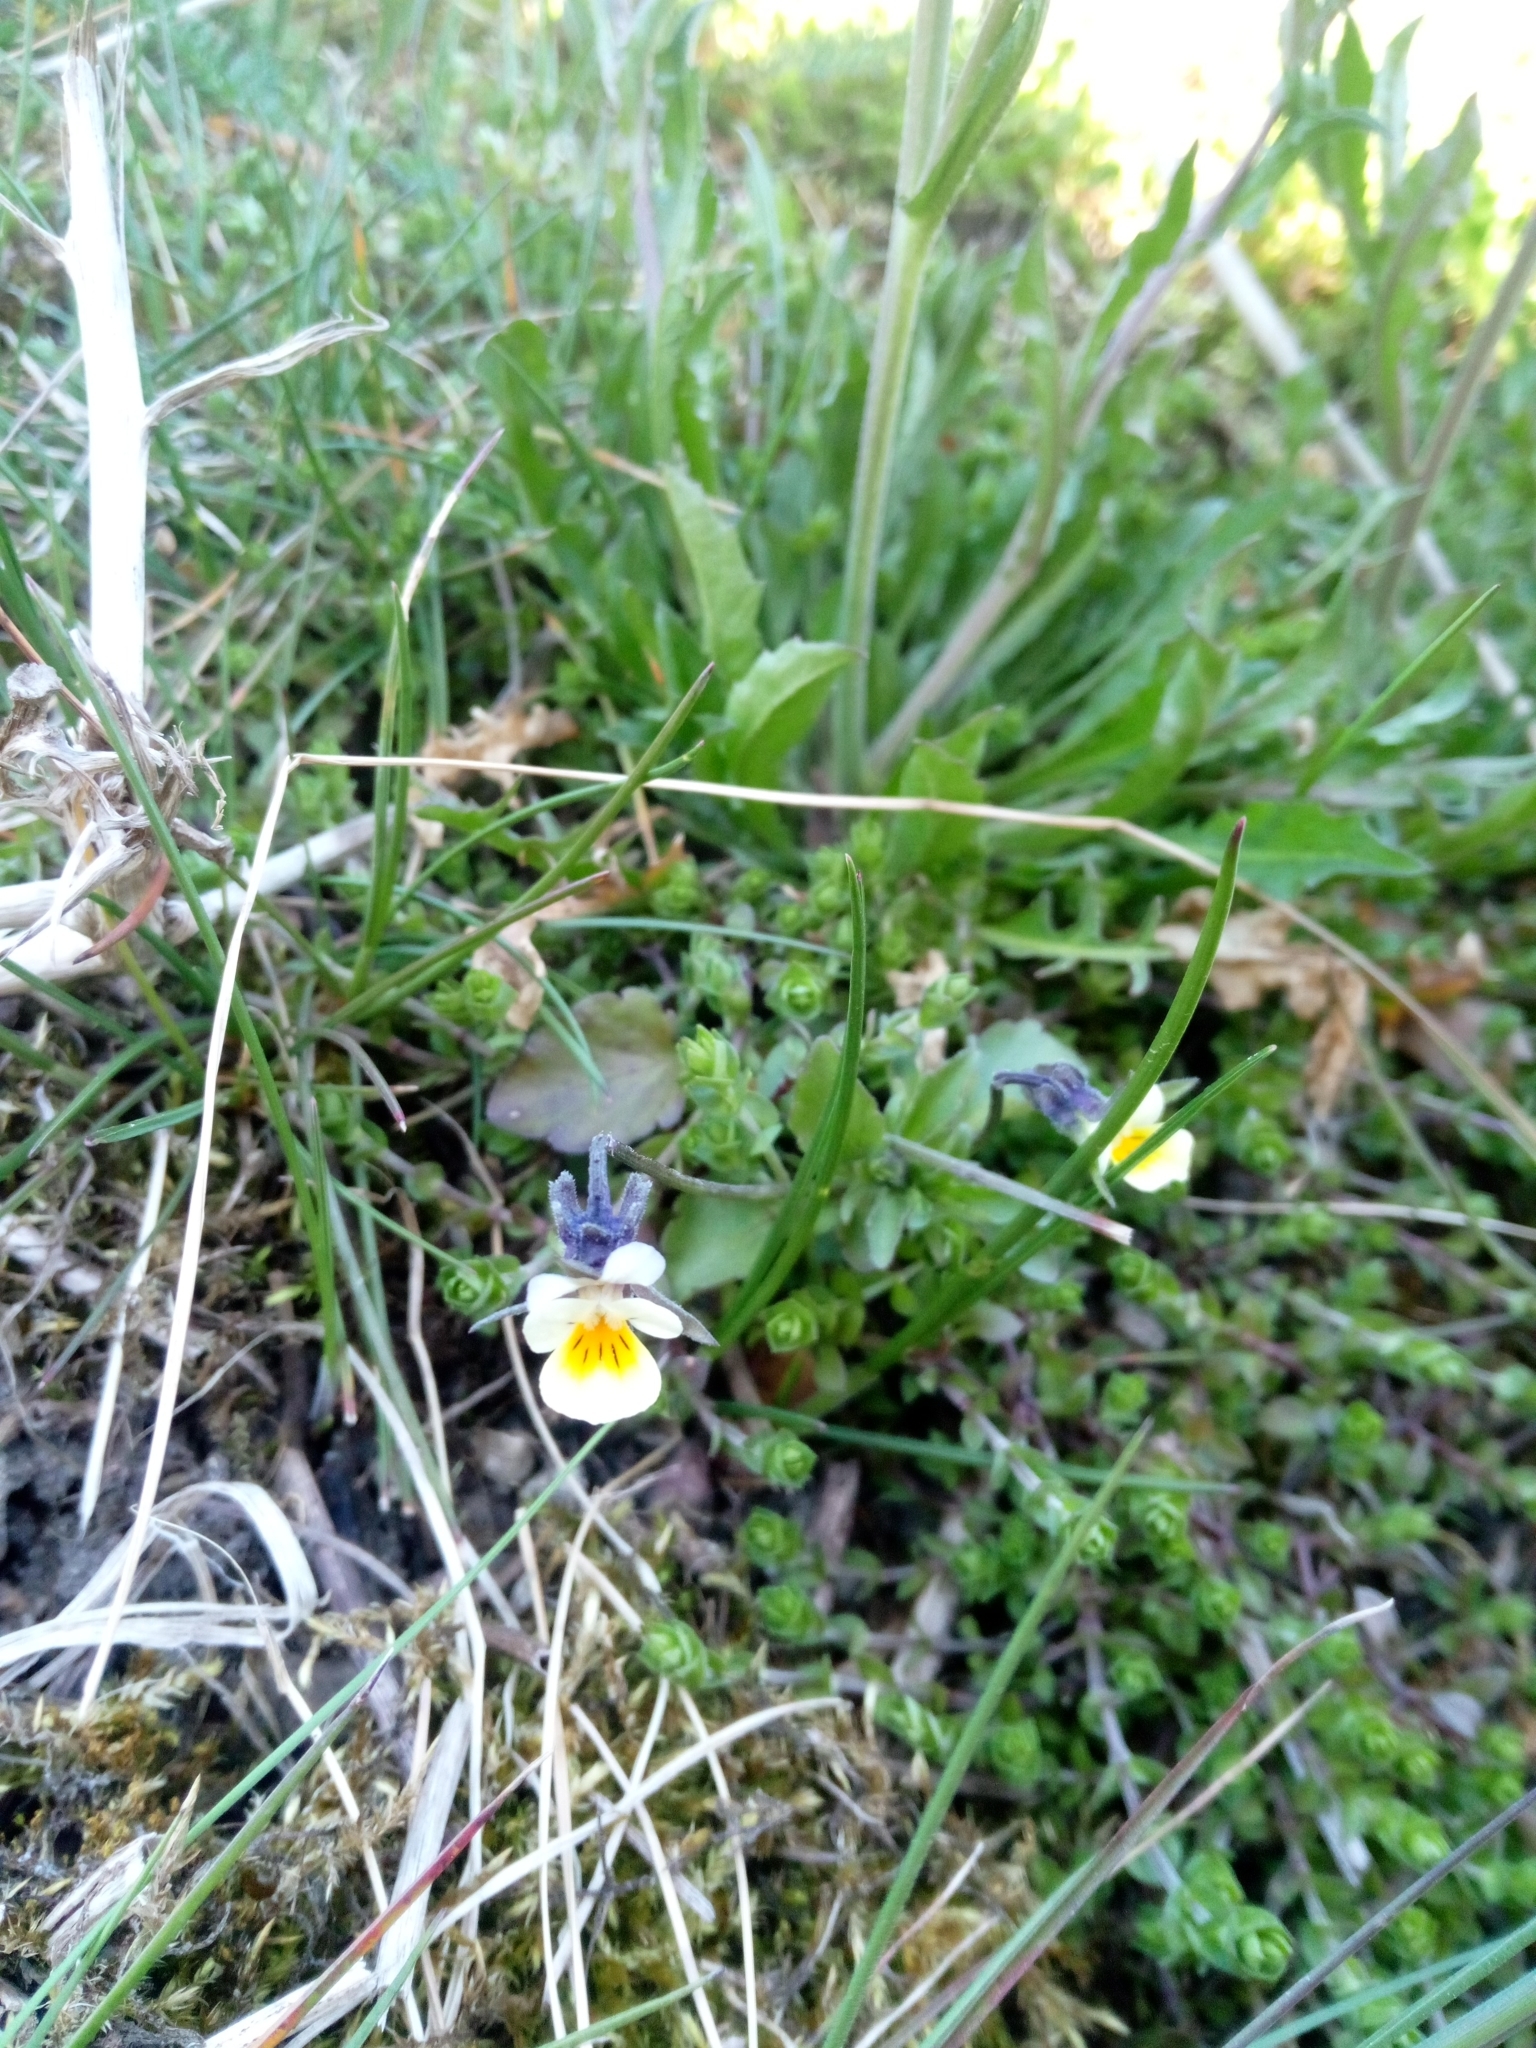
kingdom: Plantae
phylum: Tracheophyta
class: Magnoliopsida
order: Malpighiales
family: Violaceae
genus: Viola
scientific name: Viola arvensis
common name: Field pansy
